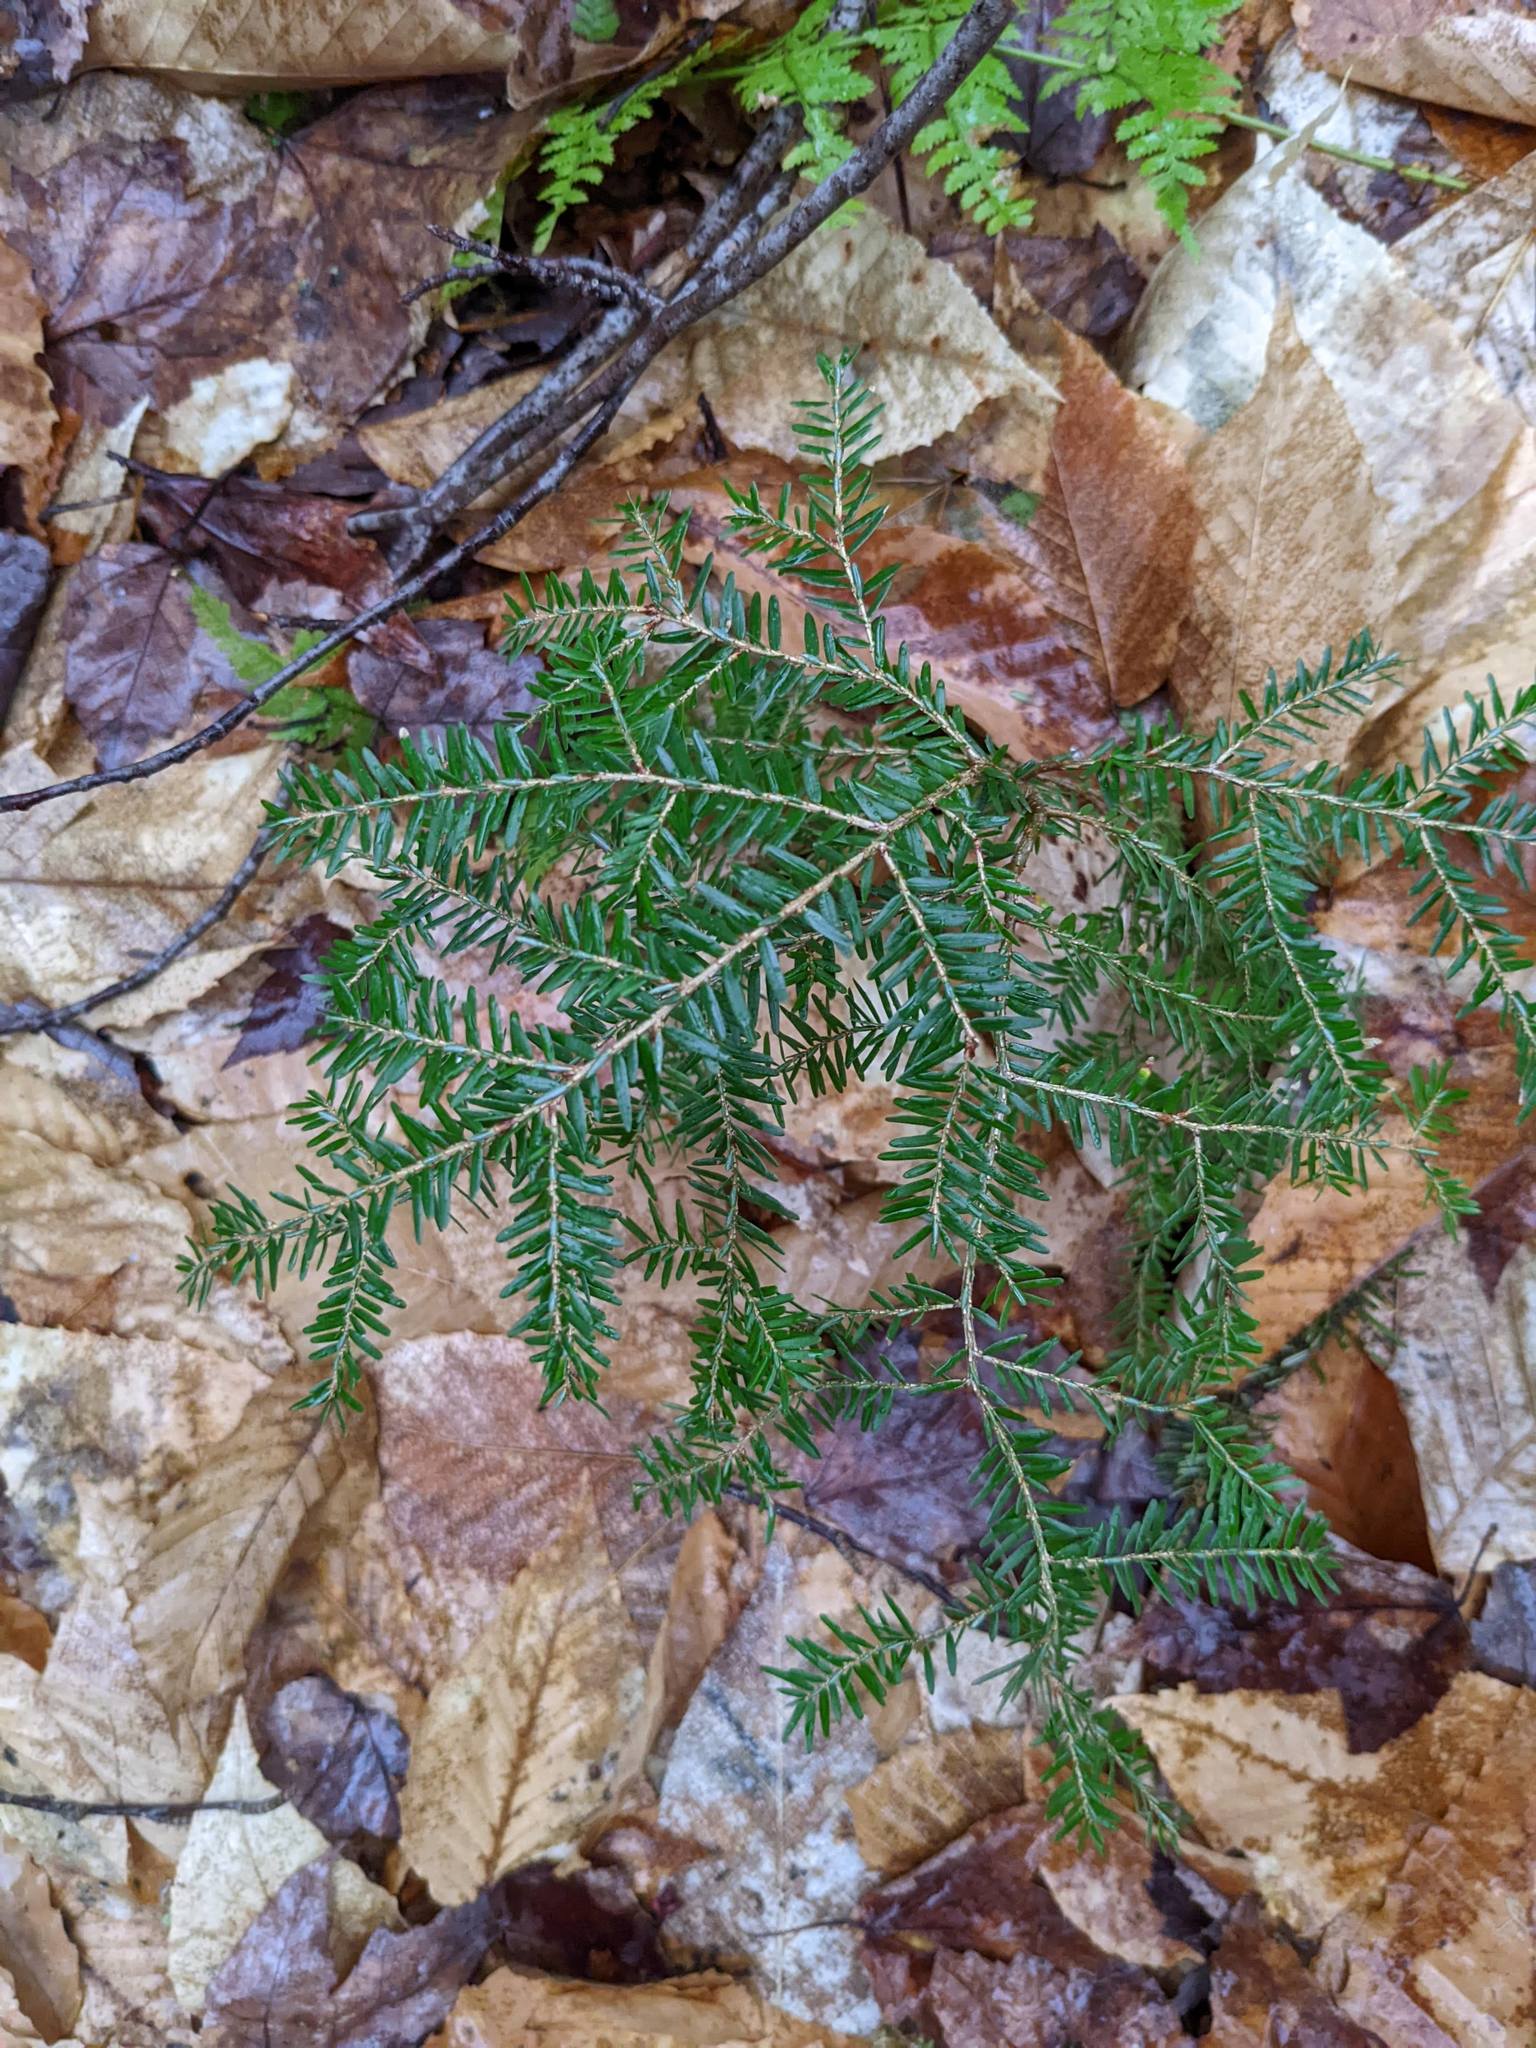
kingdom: Plantae
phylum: Tracheophyta
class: Pinopsida
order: Pinales
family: Pinaceae
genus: Tsuga
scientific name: Tsuga canadensis
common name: Eastern hemlock
